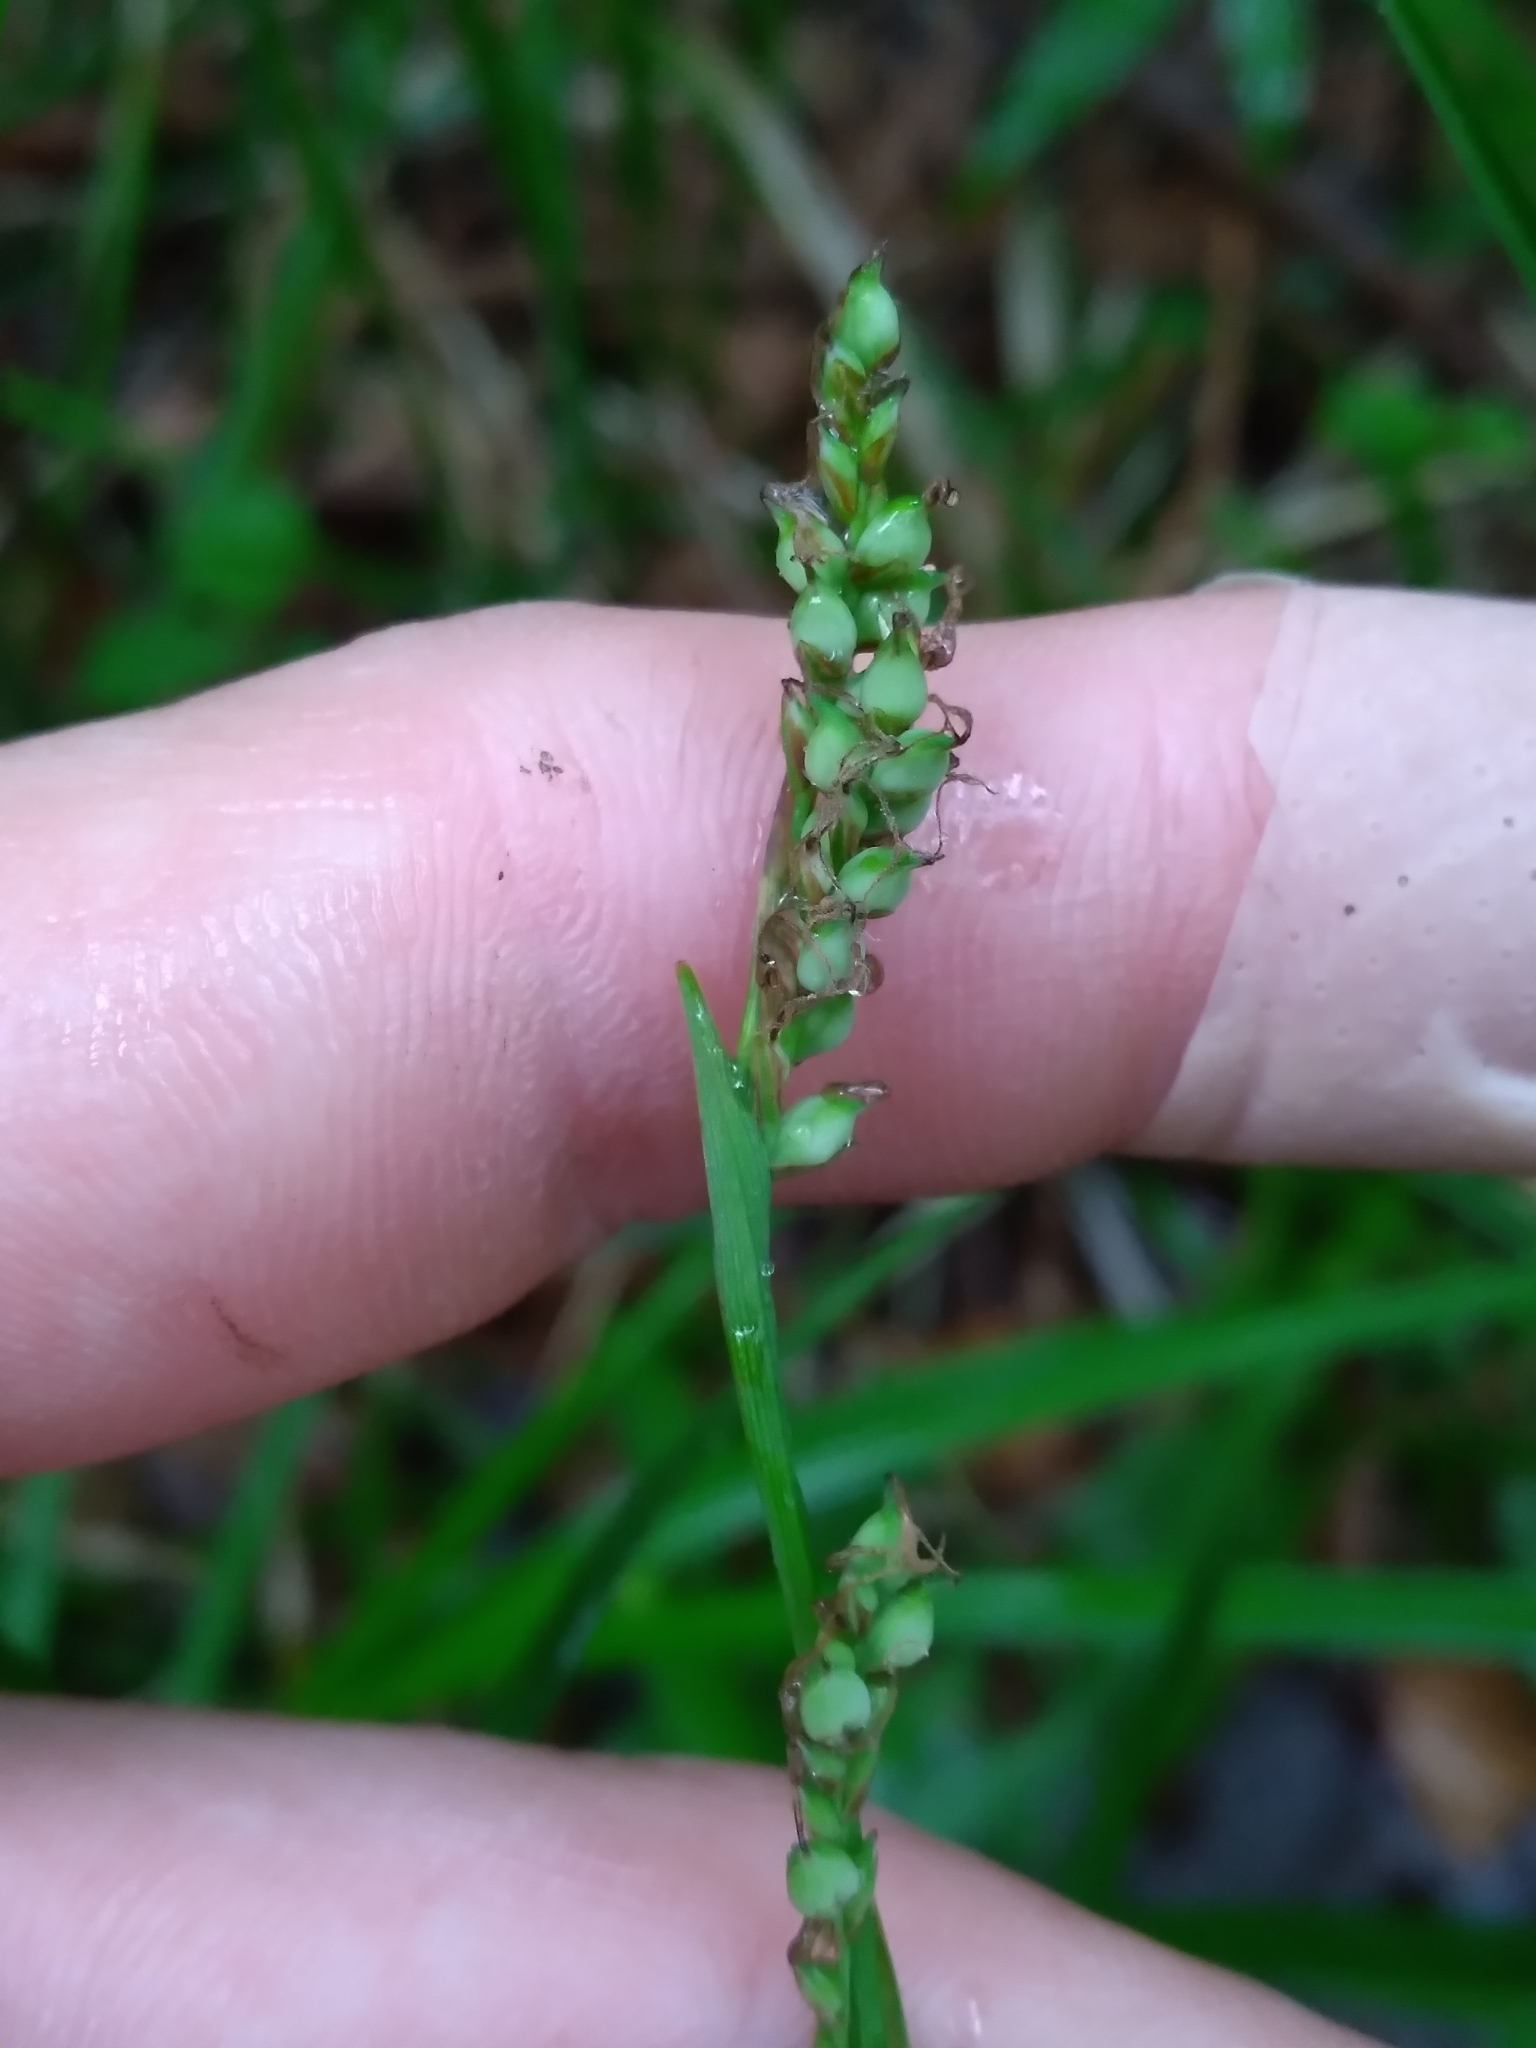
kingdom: Plantae
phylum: Tracheophyta
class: Liliopsida
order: Poales
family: Cyperaceae
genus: Carex
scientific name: Carex vaginata
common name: Sheathed sedge
